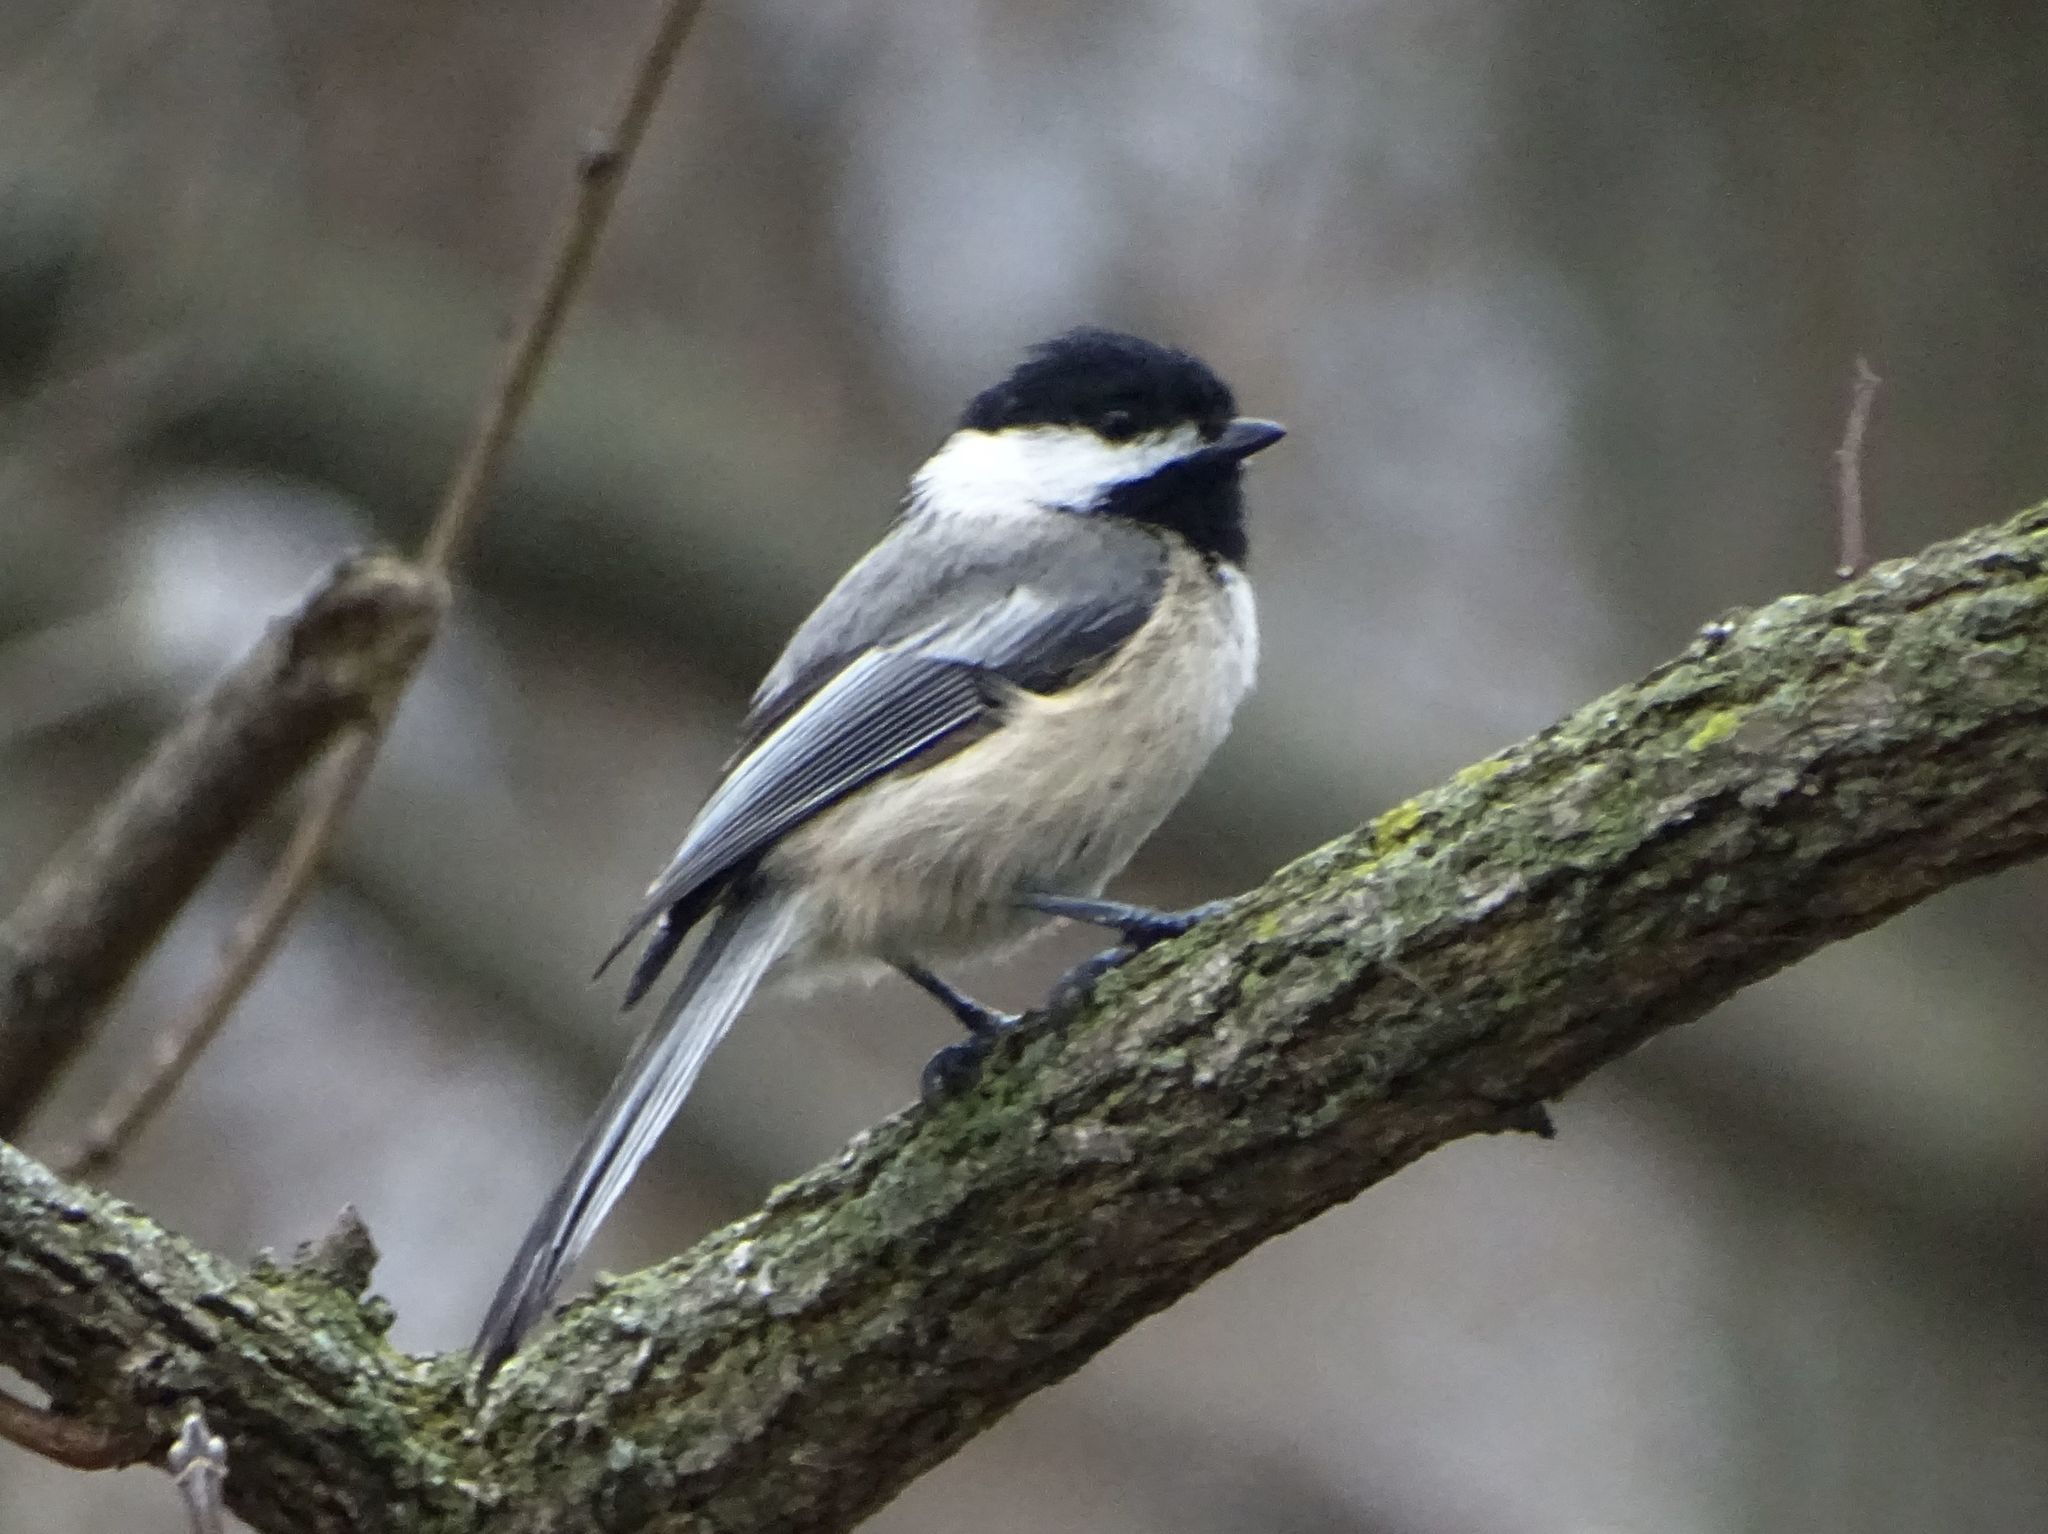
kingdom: Animalia
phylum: Chordata
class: Aves
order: Passeriformes
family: Paridae
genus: Poecile
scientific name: Poecile atricapillus
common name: Black-capped chickadee
